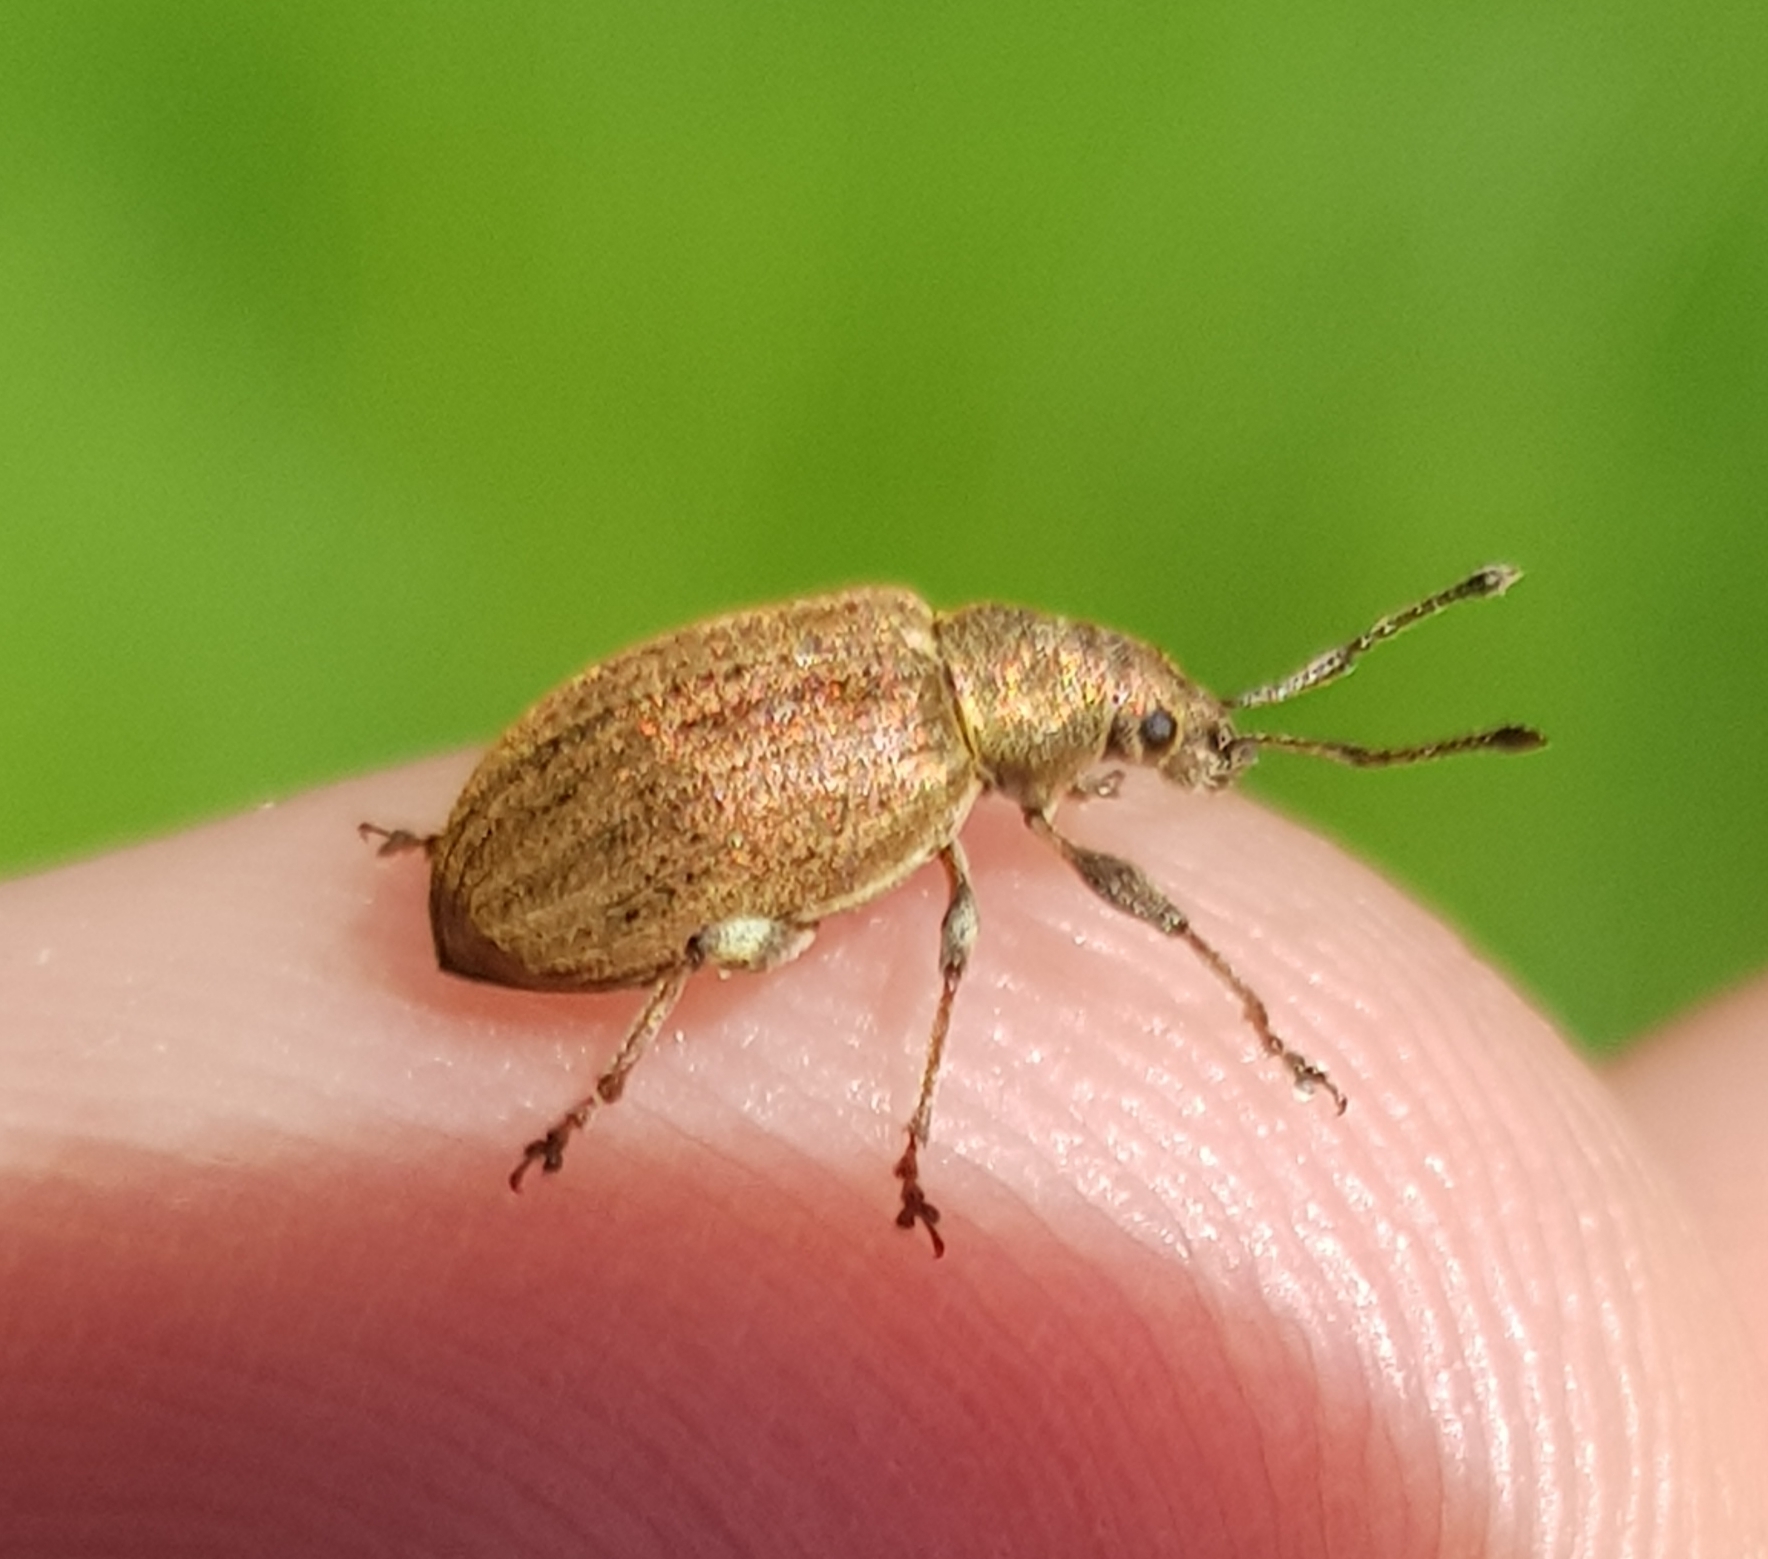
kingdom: Animalia
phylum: Arthropoda
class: Insecta
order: Coleoptera
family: Curculionidae
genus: Phyllobius
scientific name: Phyllobius pyri
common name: Common leaf weevil
